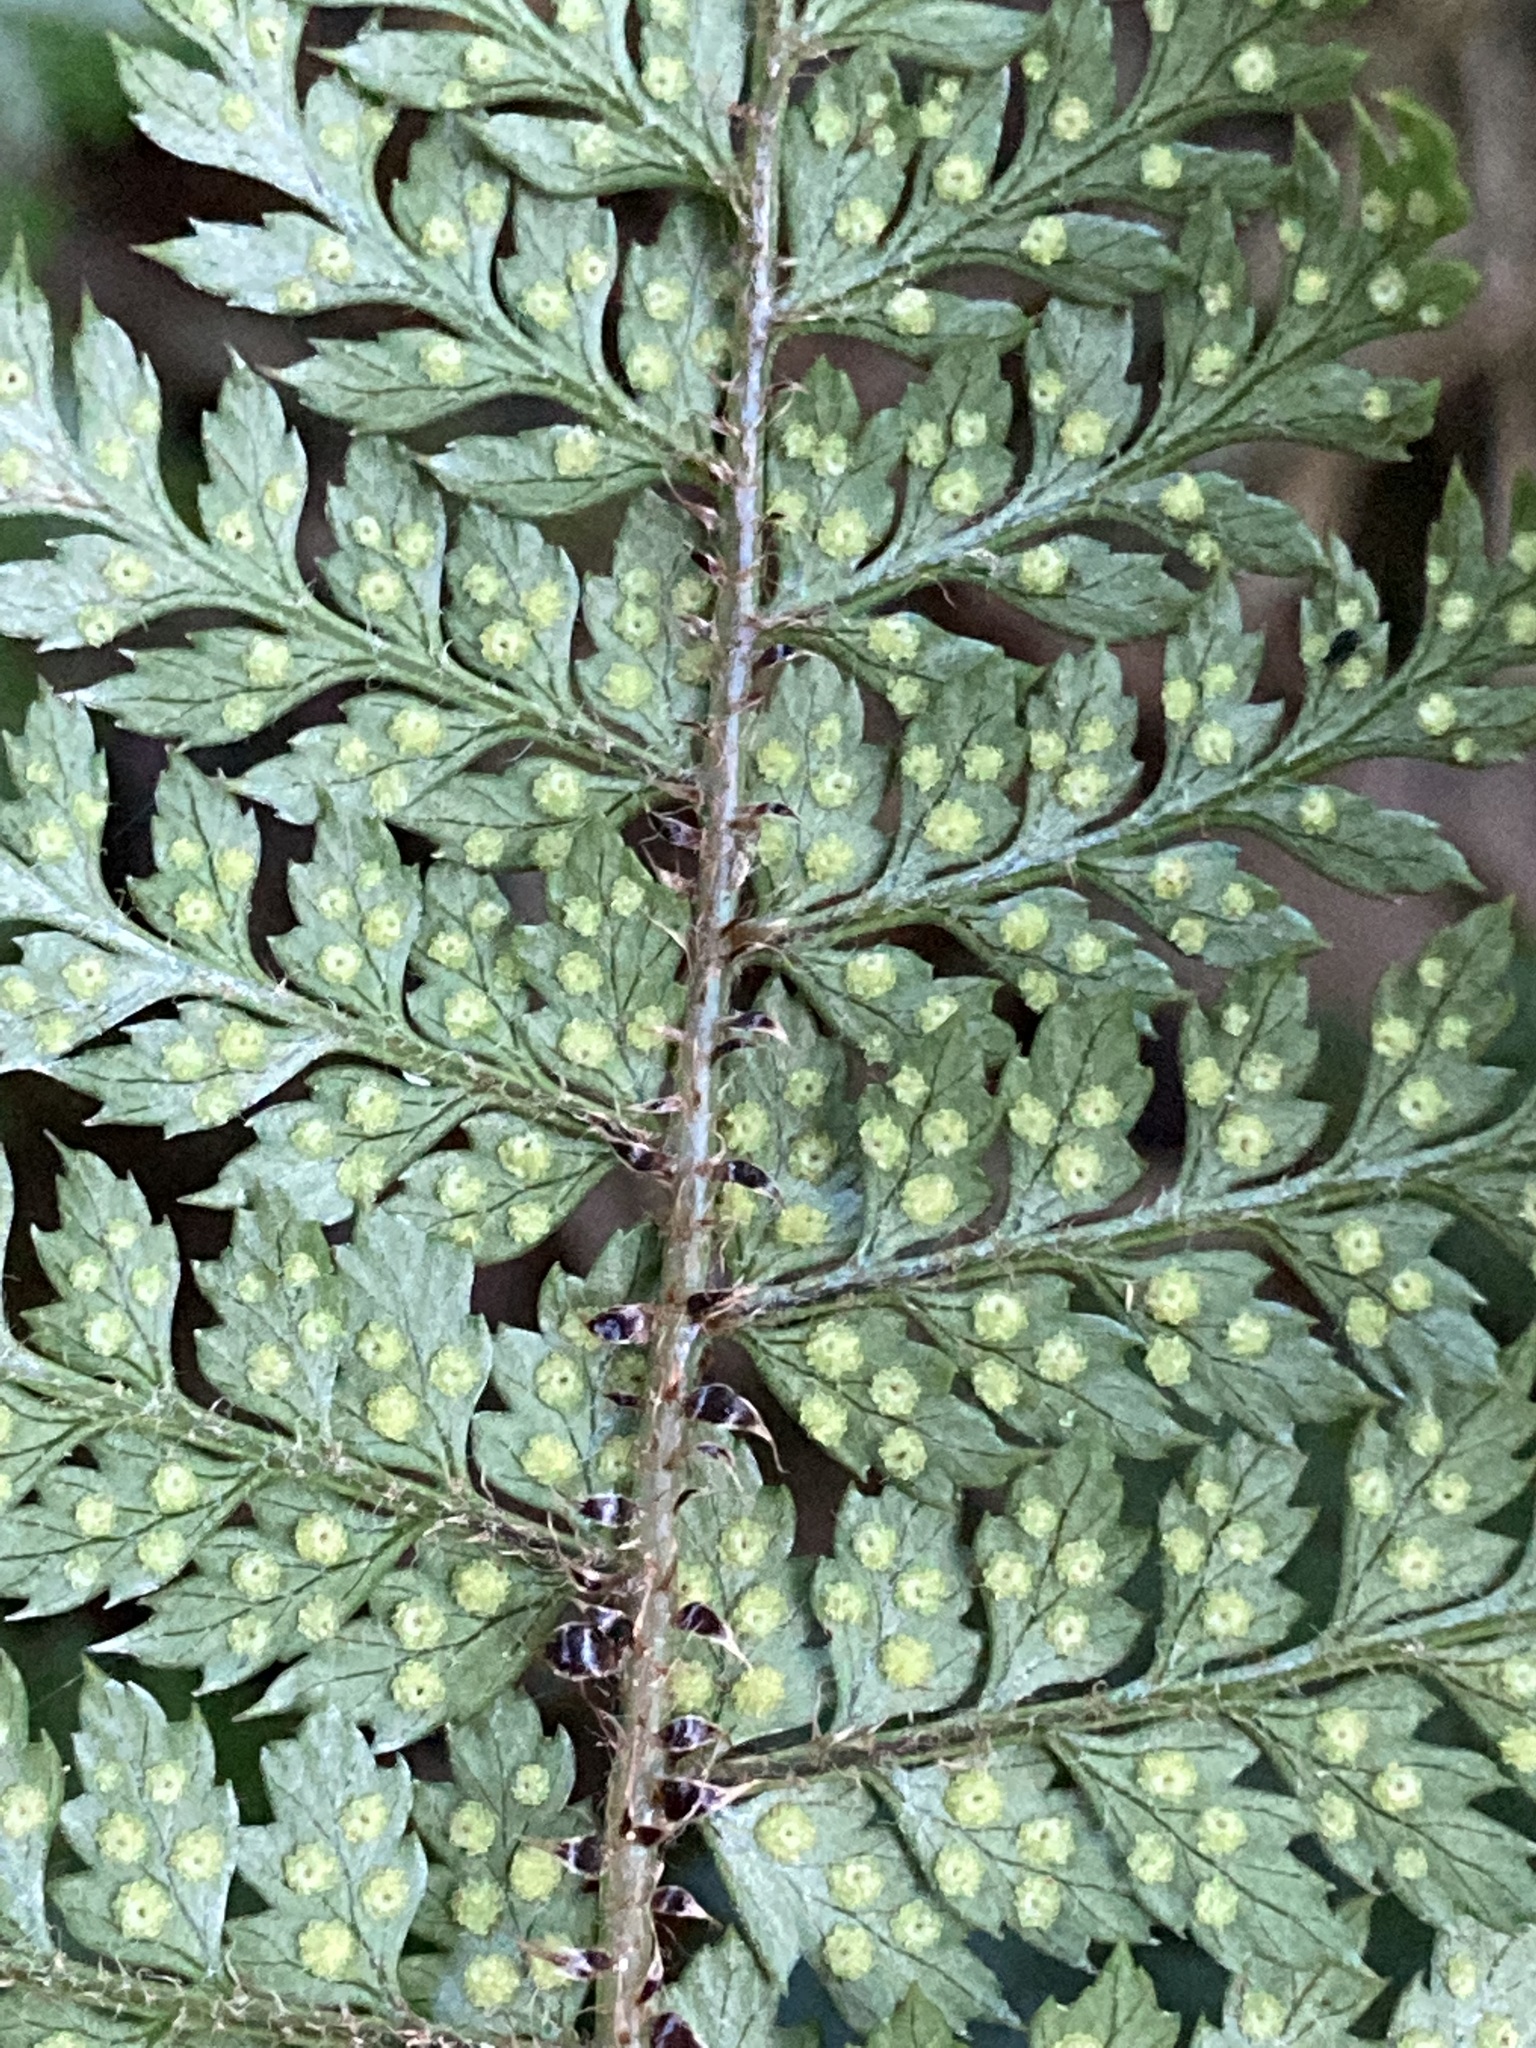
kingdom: Plantae
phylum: Tracheophyta
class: Polypodiopsida
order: Polypodiales
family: Dryopteridaceae
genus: Polystichum
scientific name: Polystichum silvaticum
